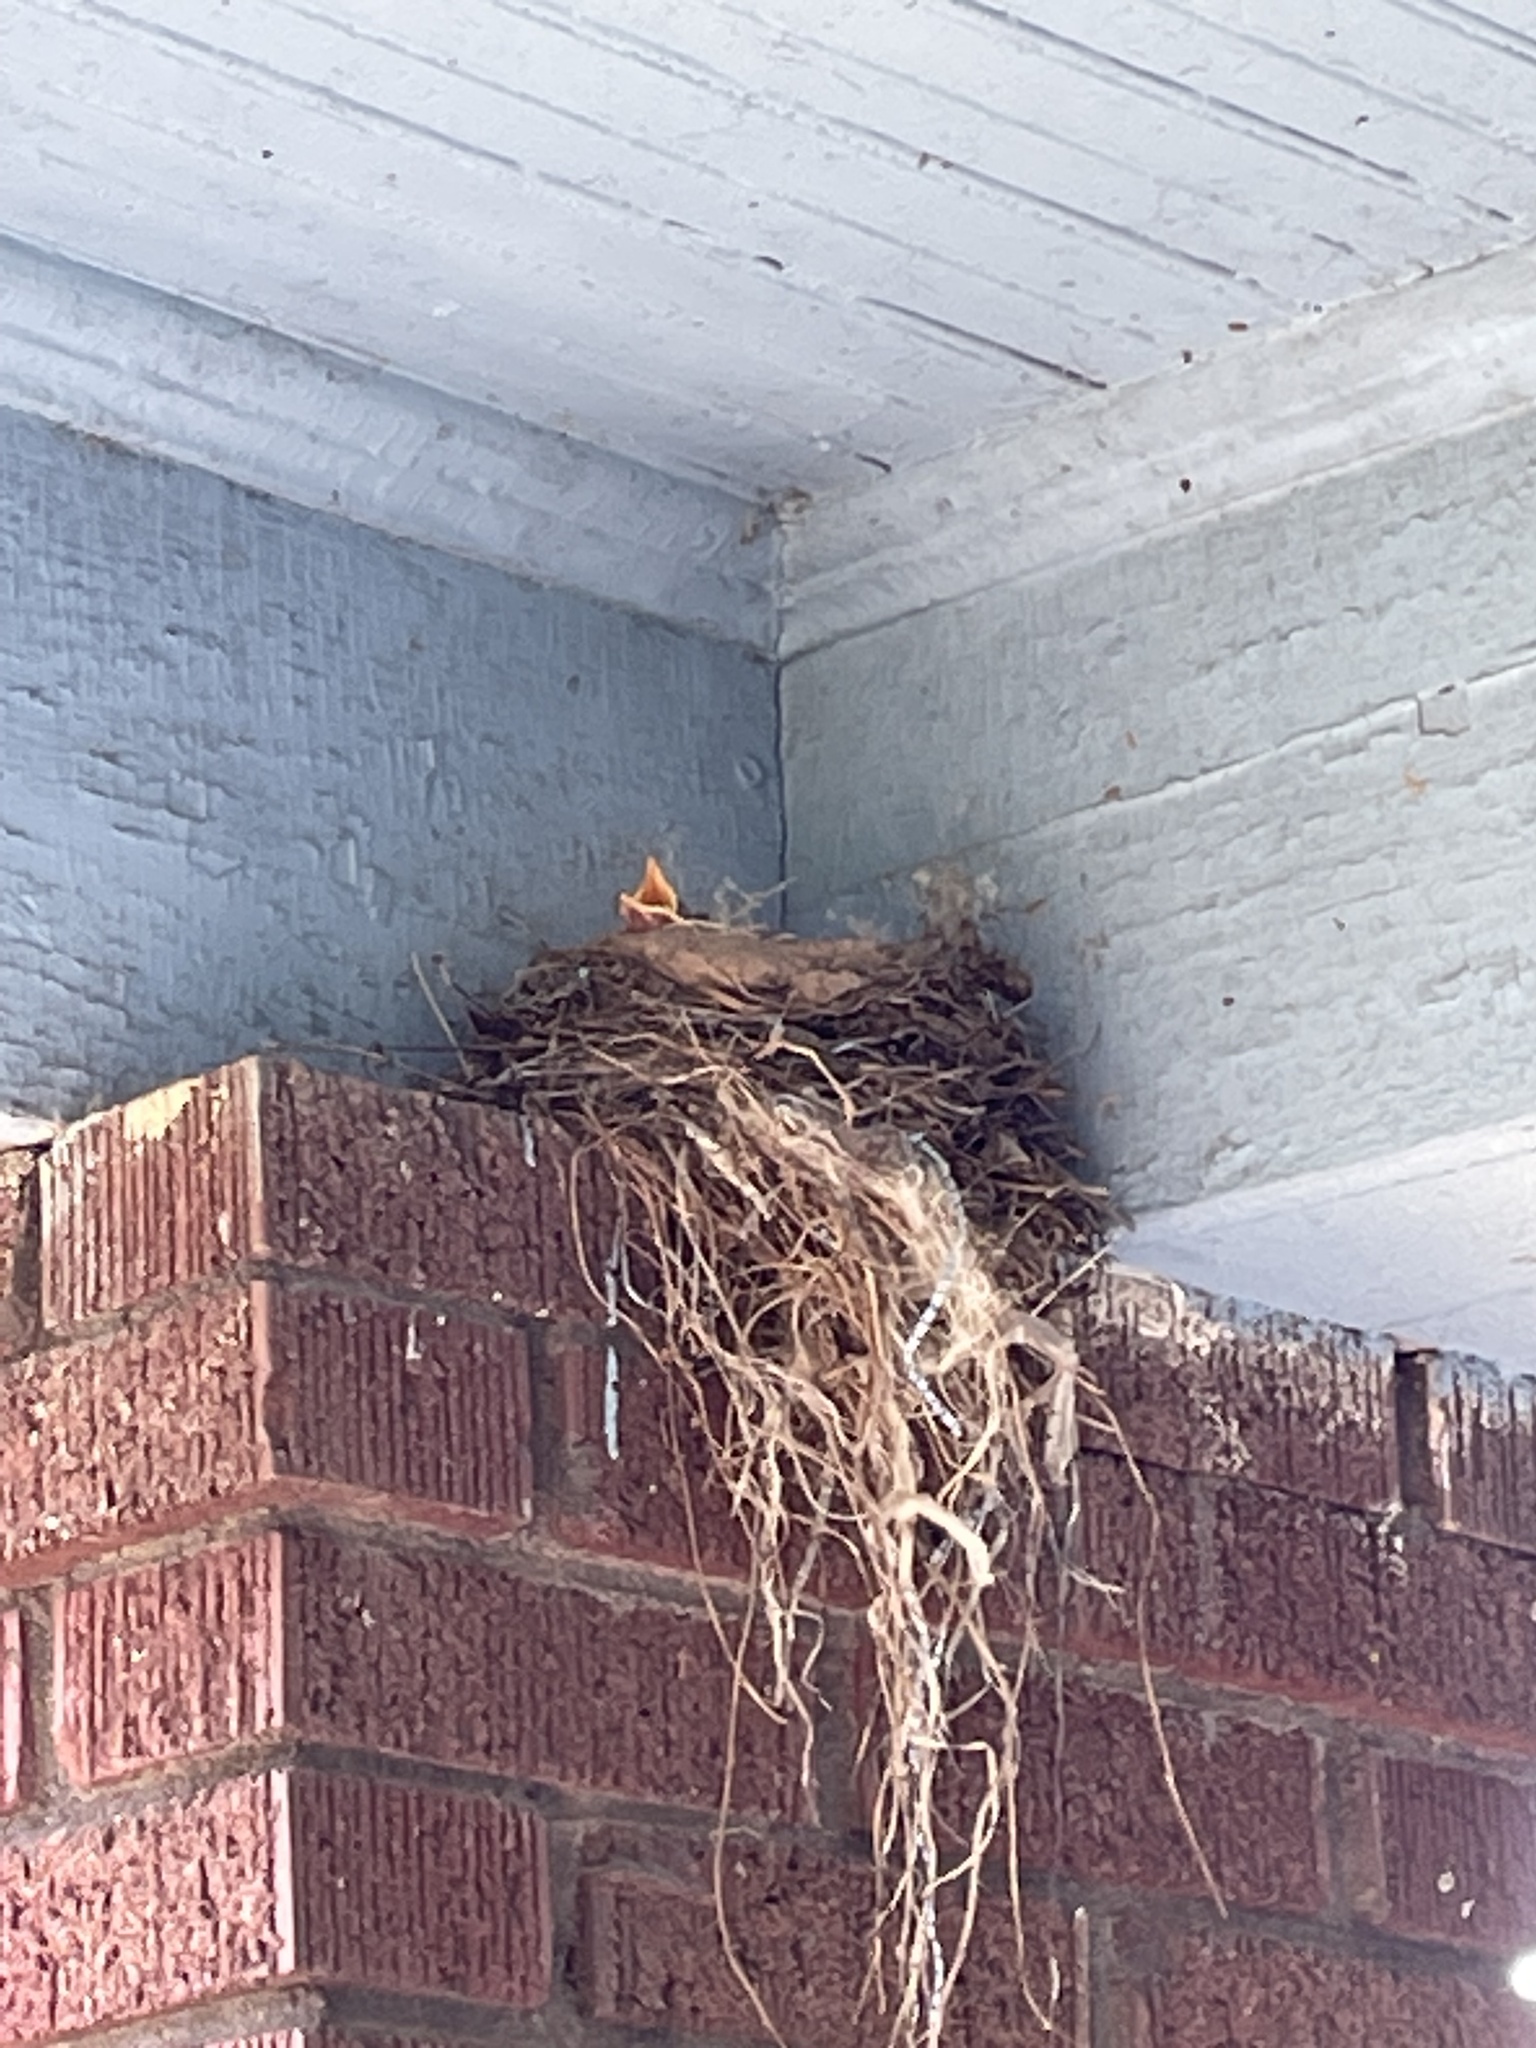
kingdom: Animalia
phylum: Chordata
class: Aves
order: Passeriformes
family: Turdidae
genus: Turdus
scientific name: Turdus migratorius
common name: American robin
